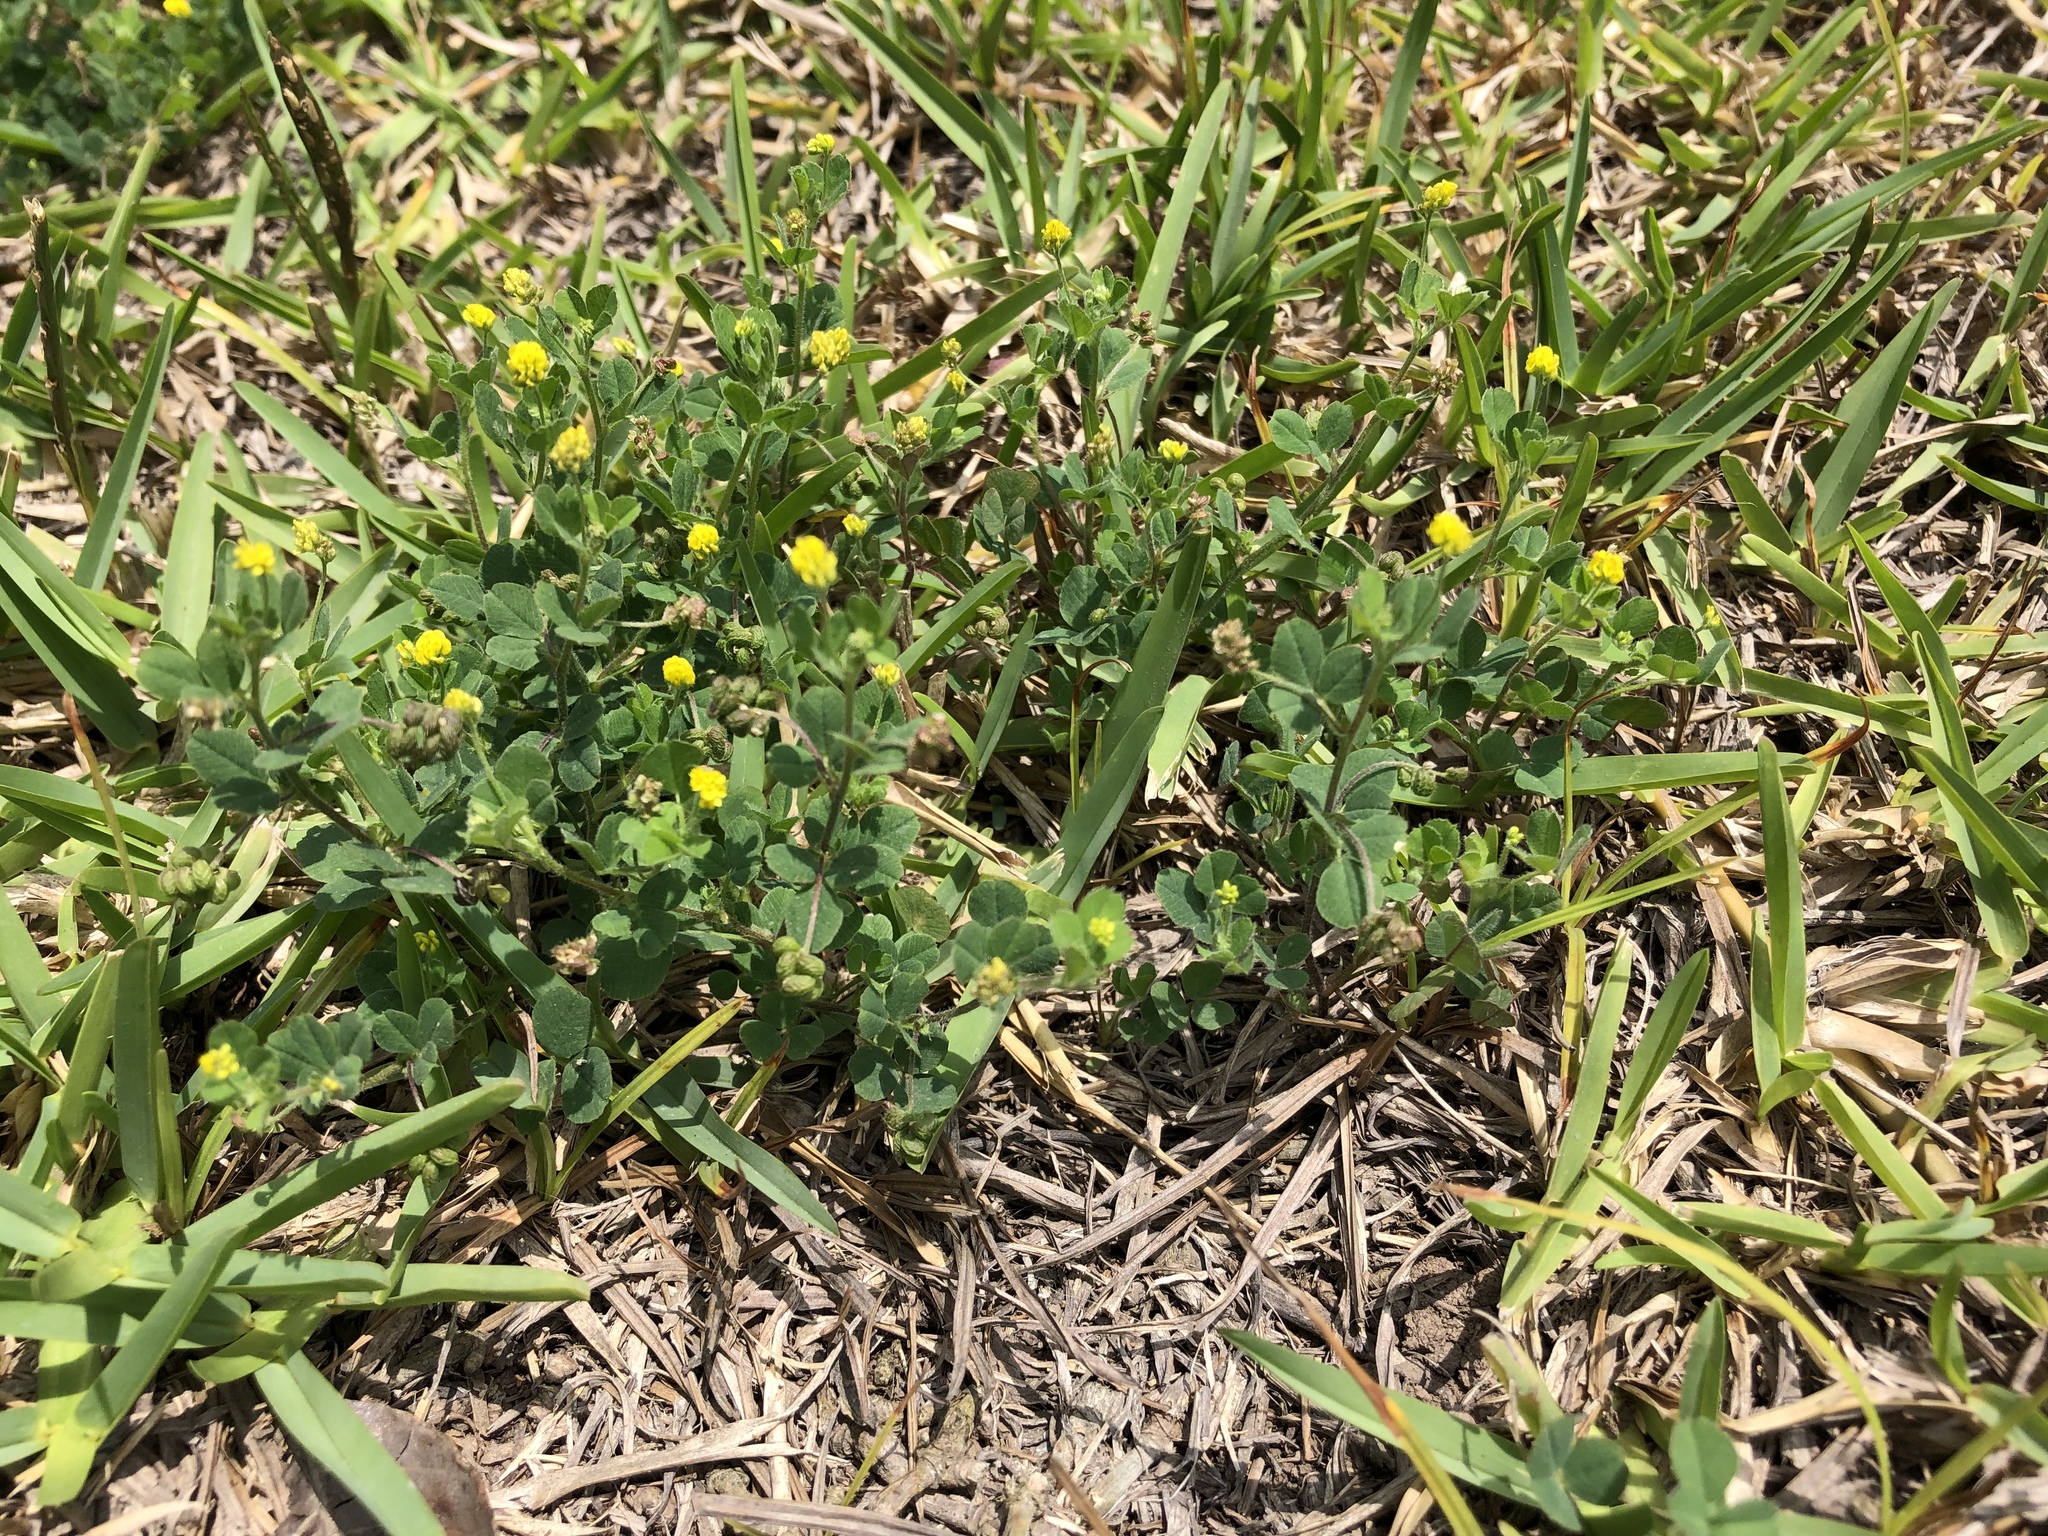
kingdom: Plantae
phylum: Tracheophyta
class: Magnoliopsida
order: Fabales
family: Fabaceae
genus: Medicago
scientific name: Medicago lupulina
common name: Black medick
